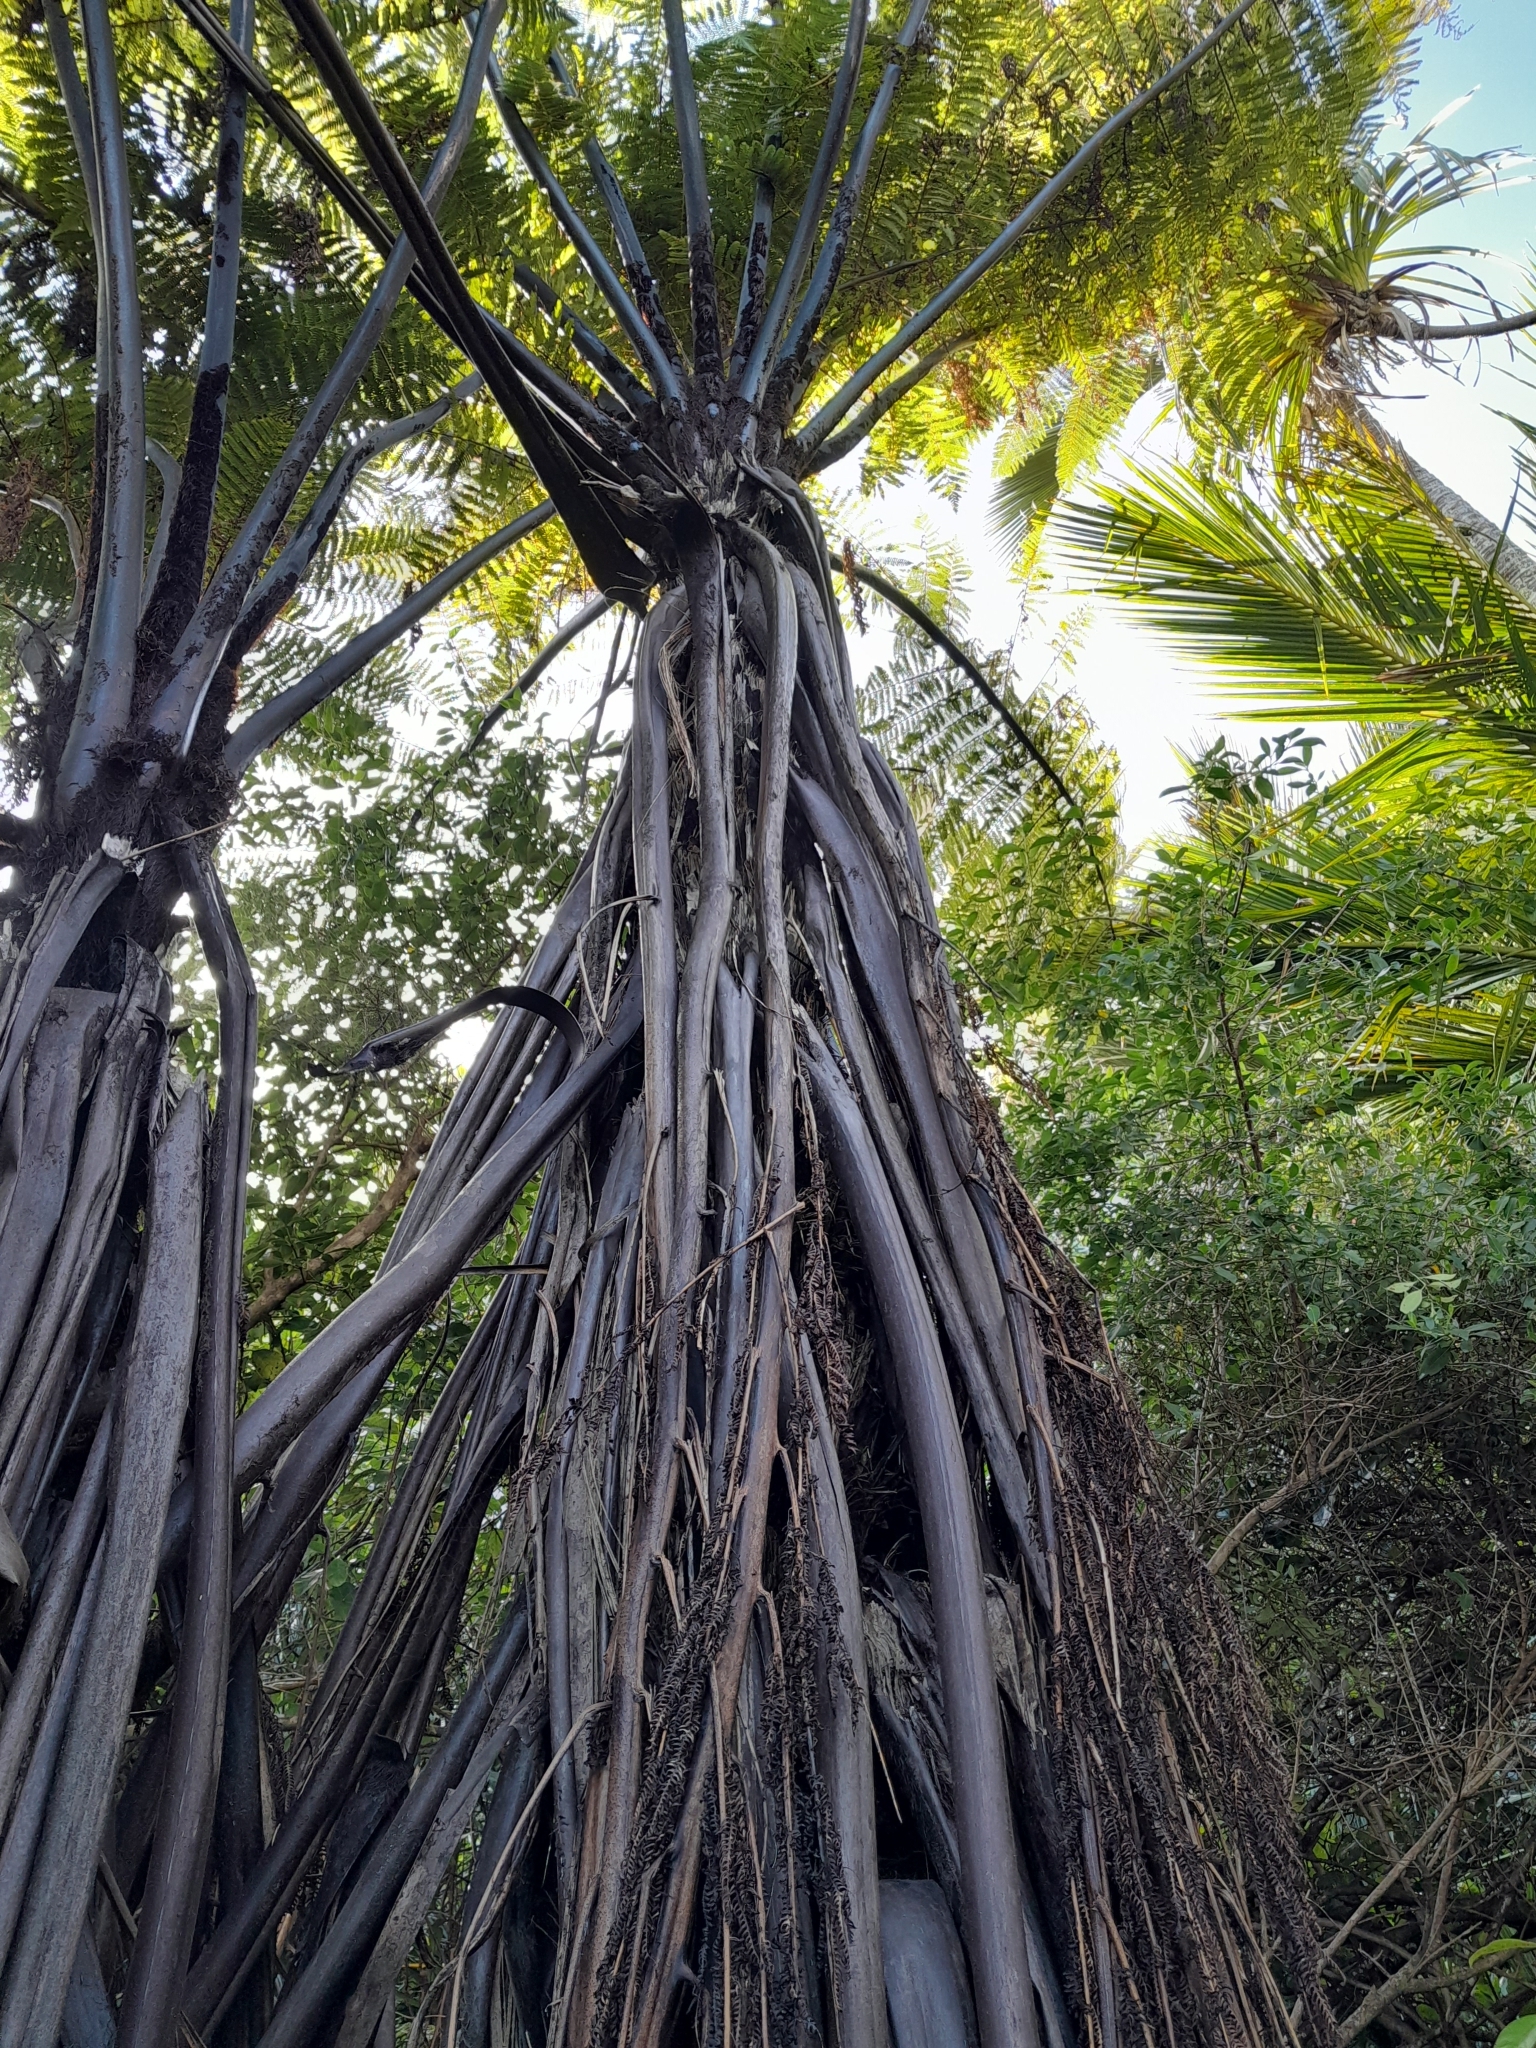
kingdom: Plantae
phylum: Tracheophyta
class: Polypodiopsida
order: Cyatheales
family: Cyatheaceae
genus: Sphaeropteris
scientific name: Sphaeropteris medullaris
